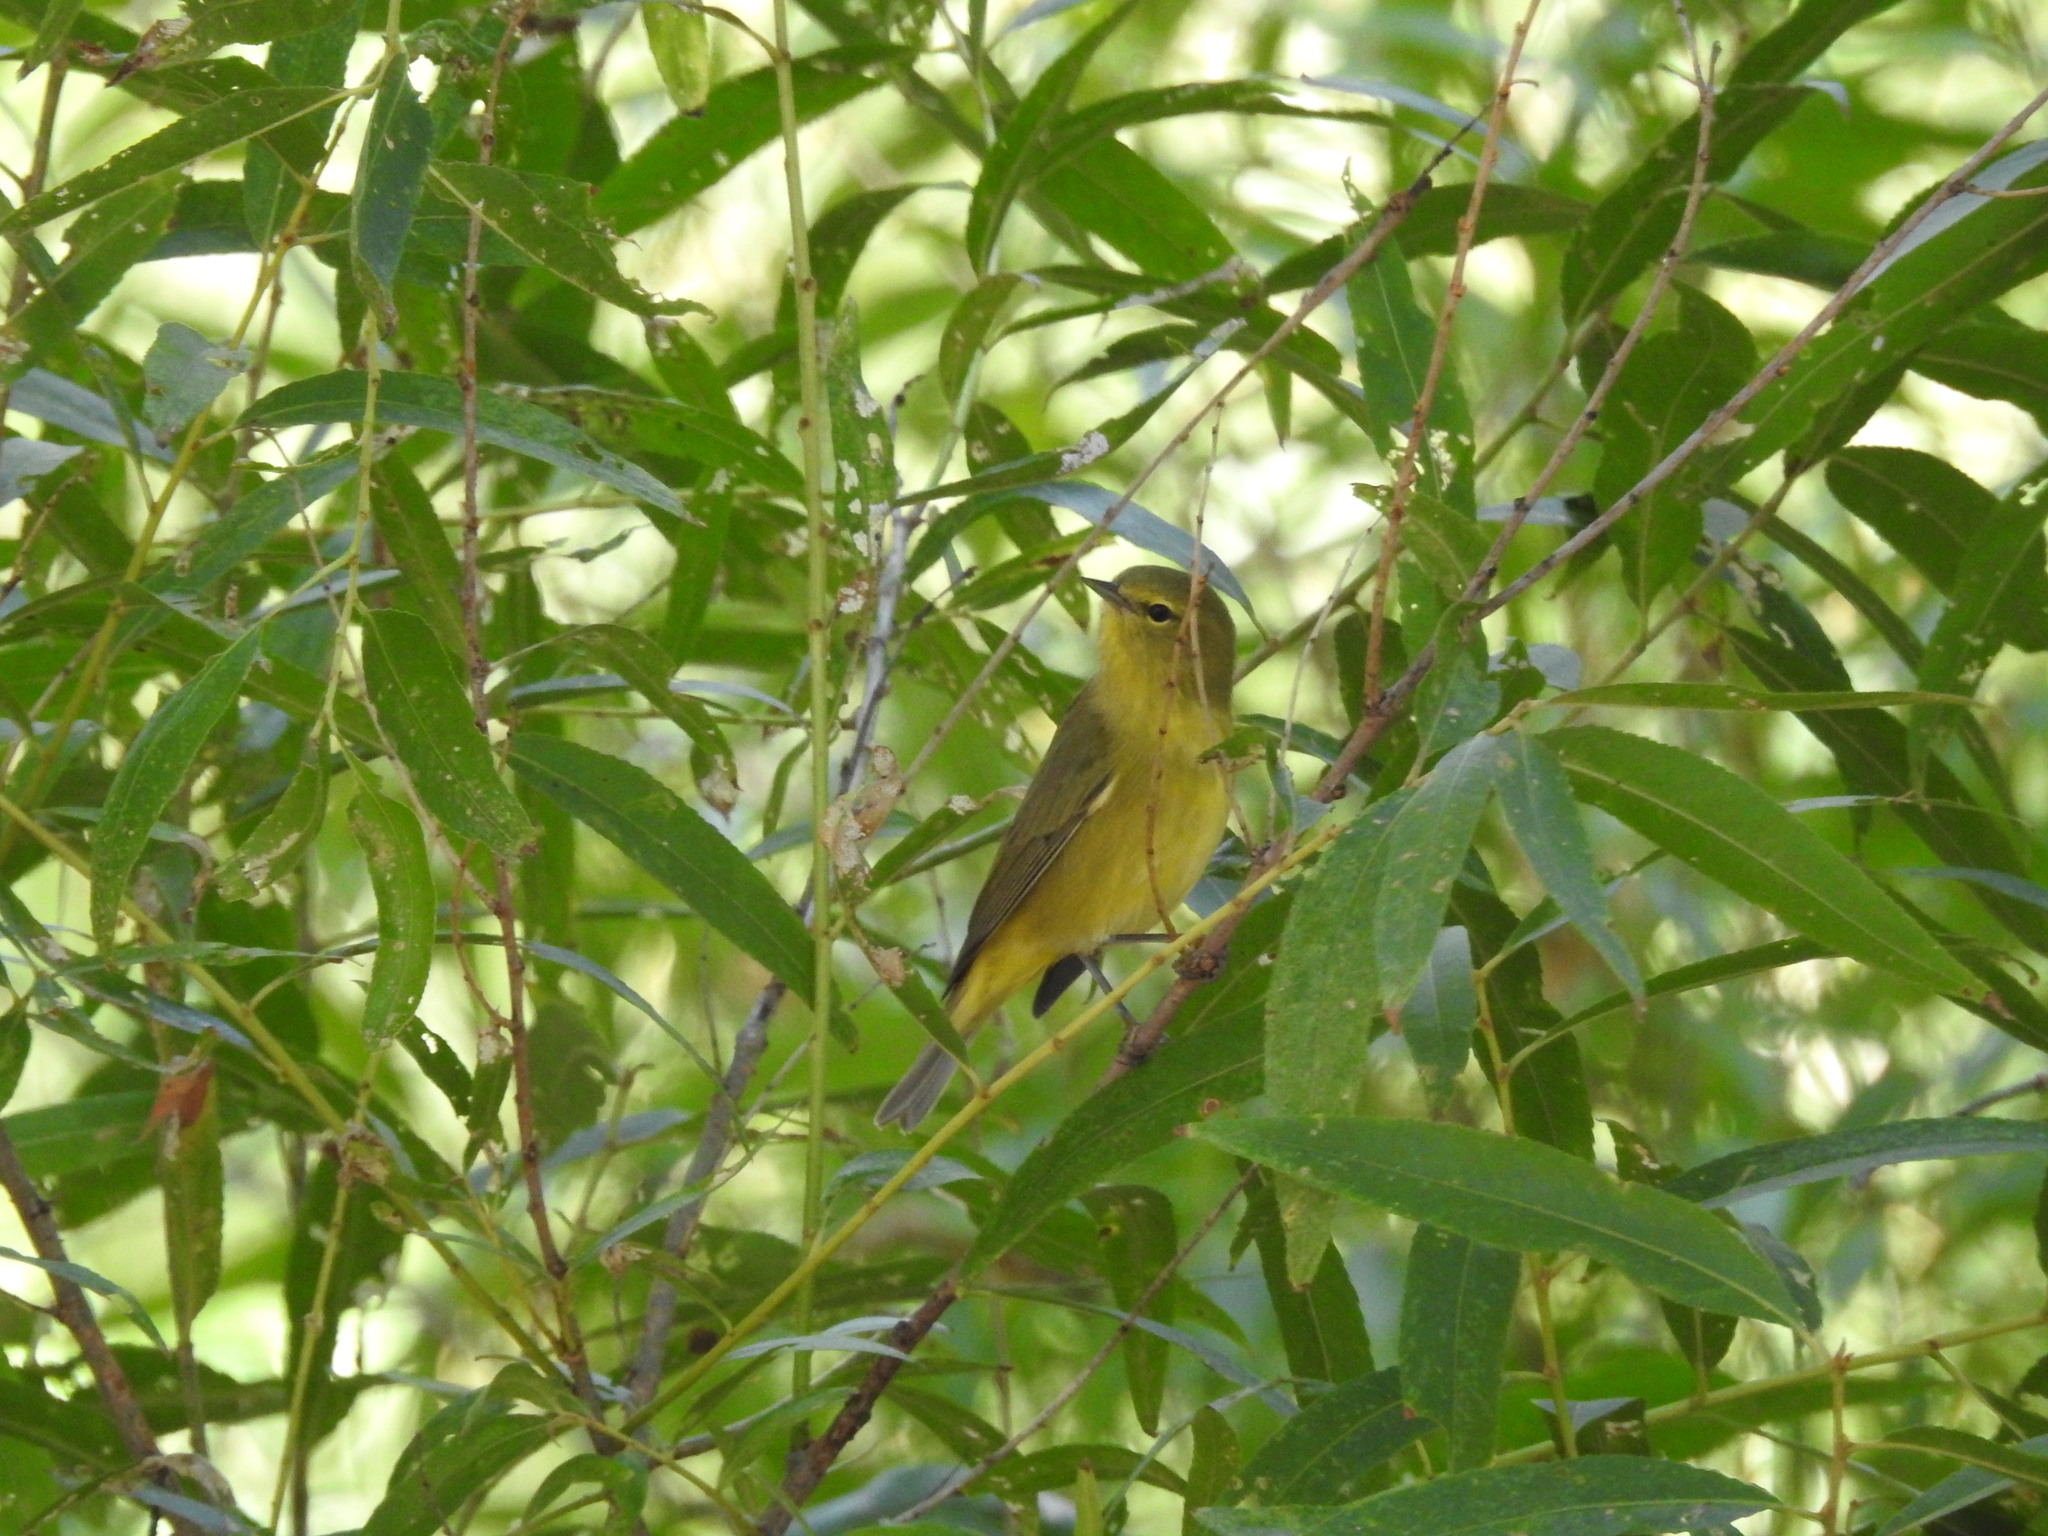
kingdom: Animalia
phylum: Chordata
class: Aves
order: Passeriformes
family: Parulidae
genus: Leiothlypis
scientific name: Leiothlypis celata
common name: Orange-crowned warbler
